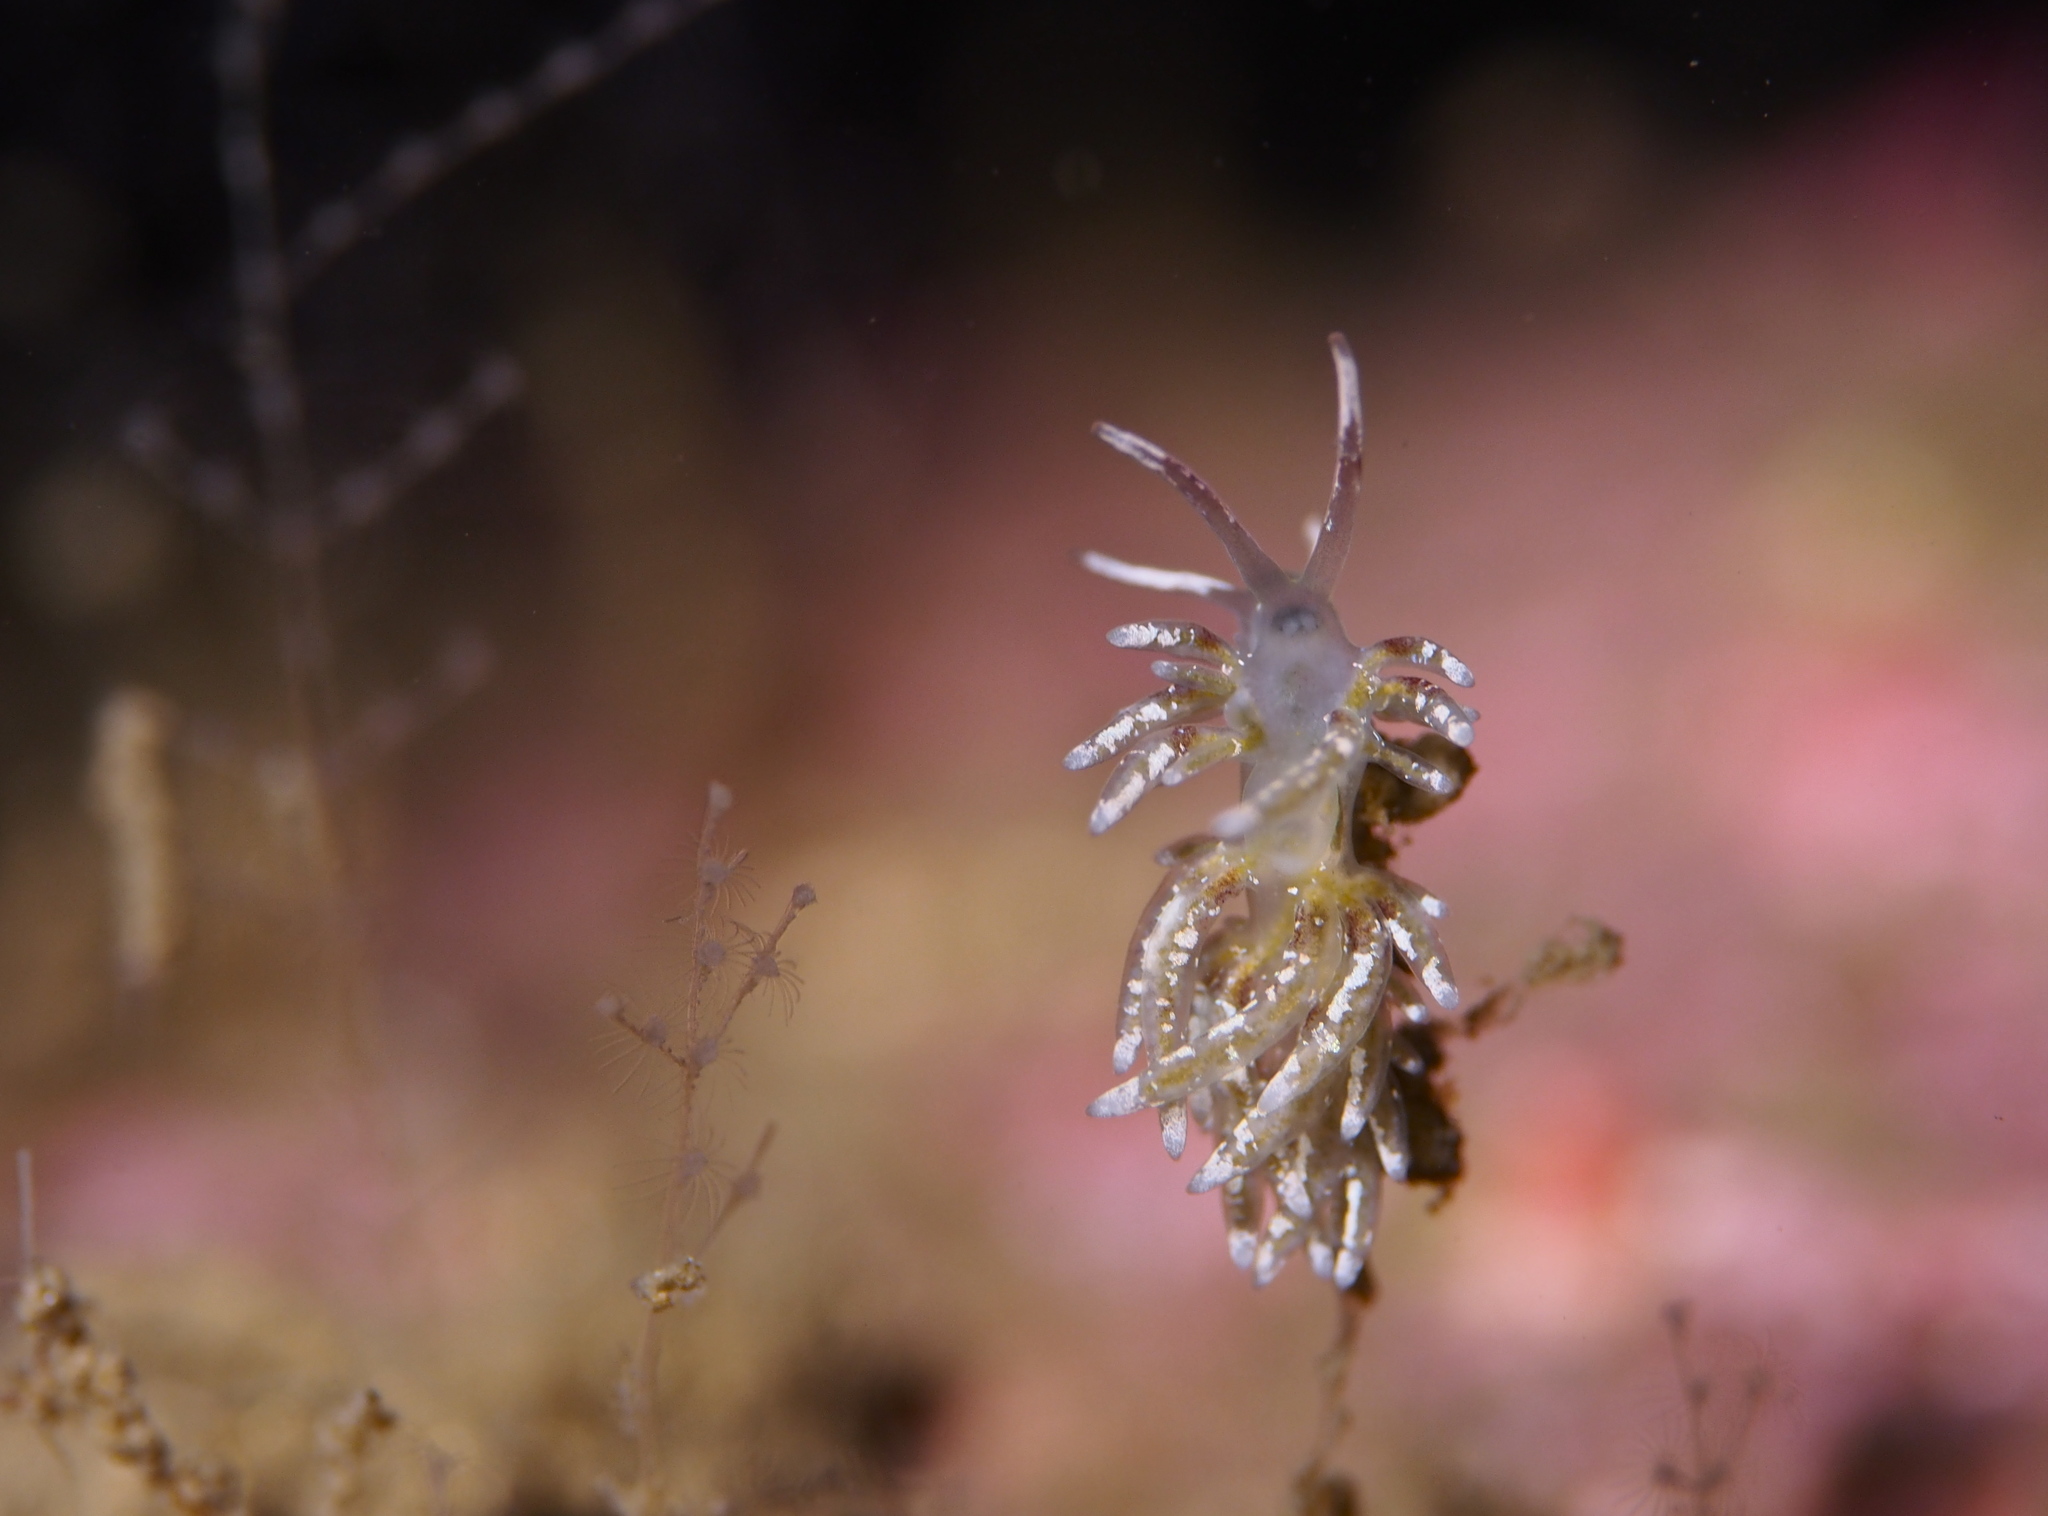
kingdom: Animalia
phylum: Mollusca
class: Gastropoda
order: Nudibranchia
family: Trinchesiidae
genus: Rubramoena
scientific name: Rubramoena rubescens
